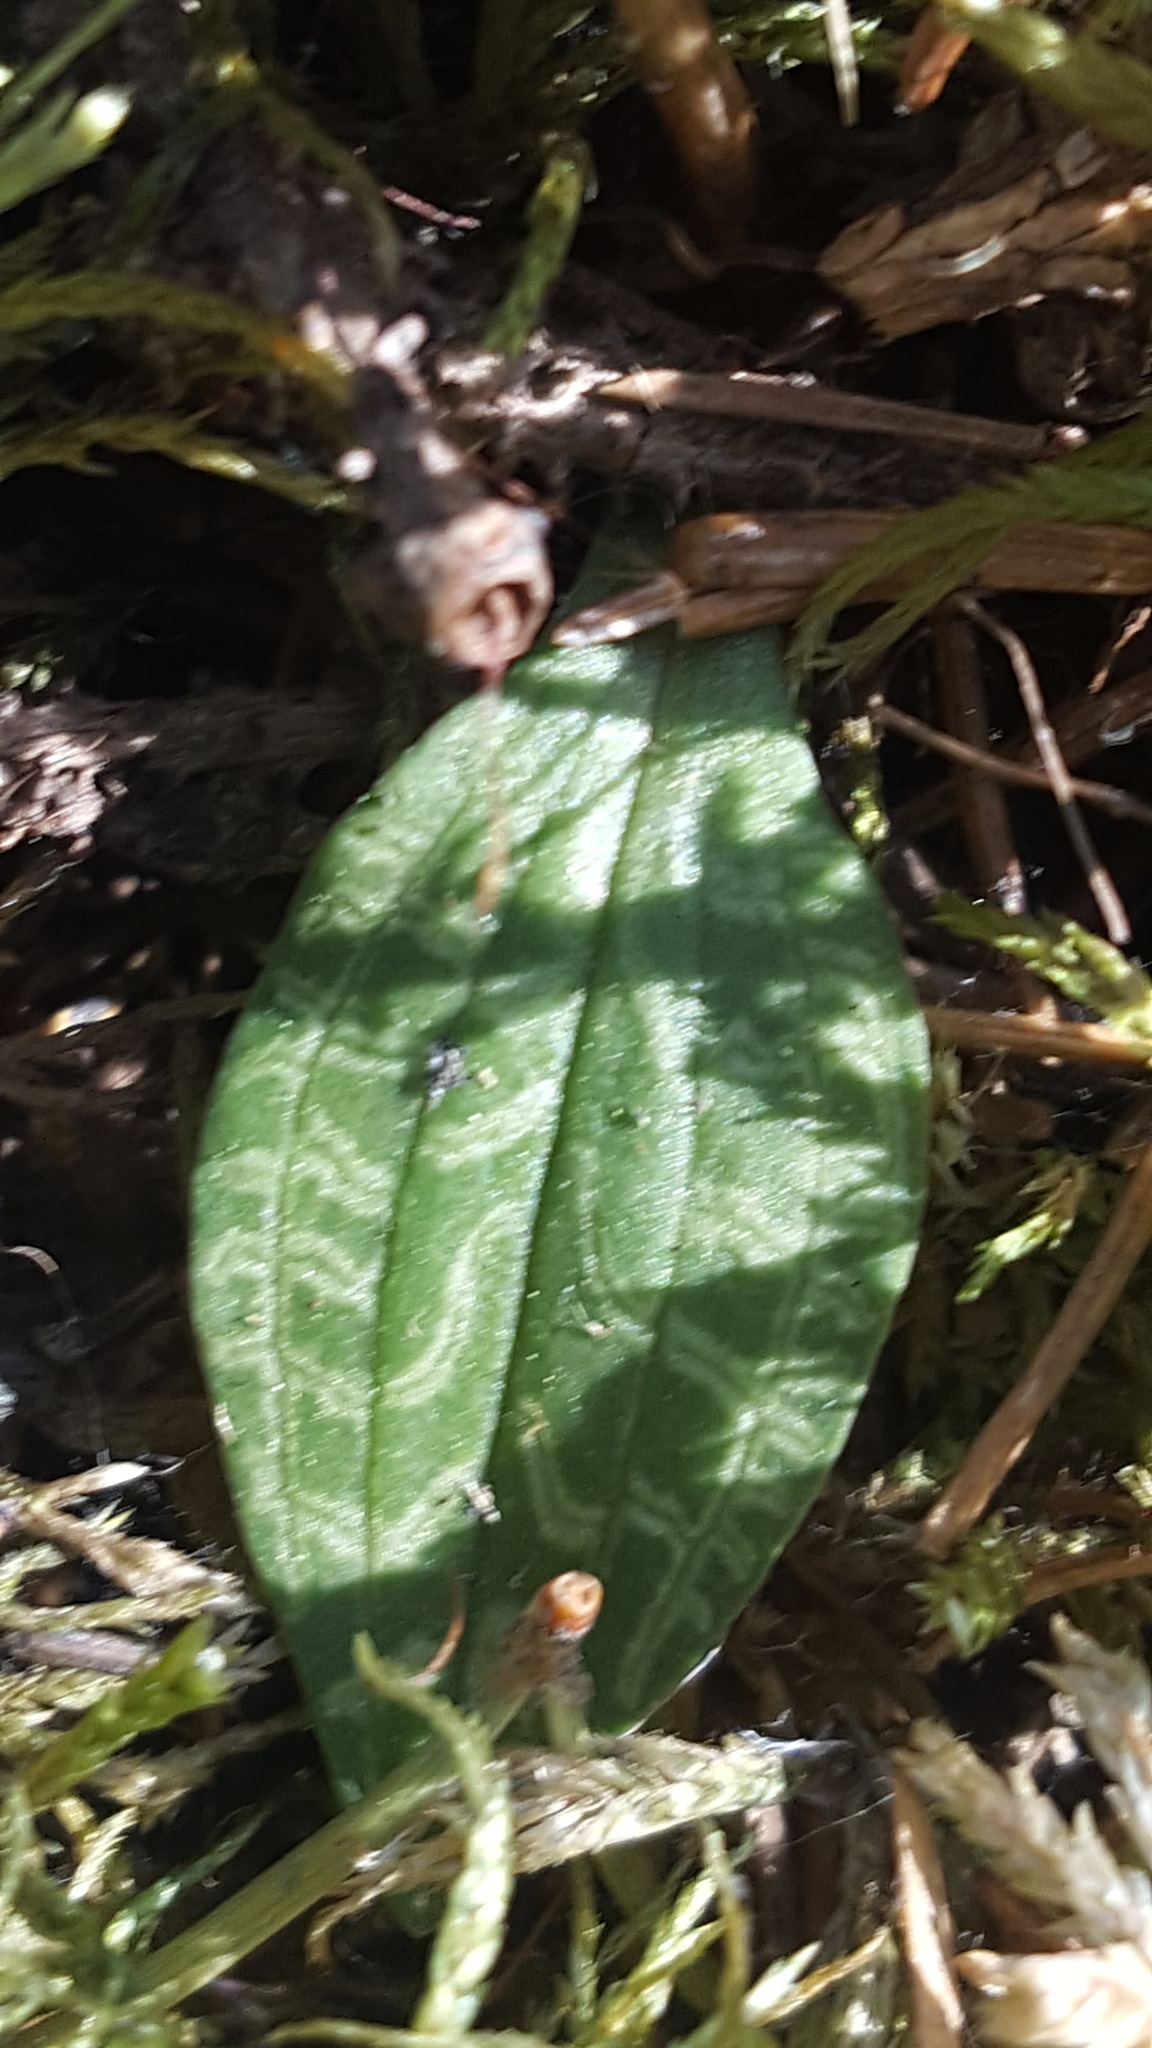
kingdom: Plantae
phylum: Tracheophyta
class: Liliopsida
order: Asparagales
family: Orchidaceae
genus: Goodyera
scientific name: Goodyera repens
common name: Creeping lady's-tresses
